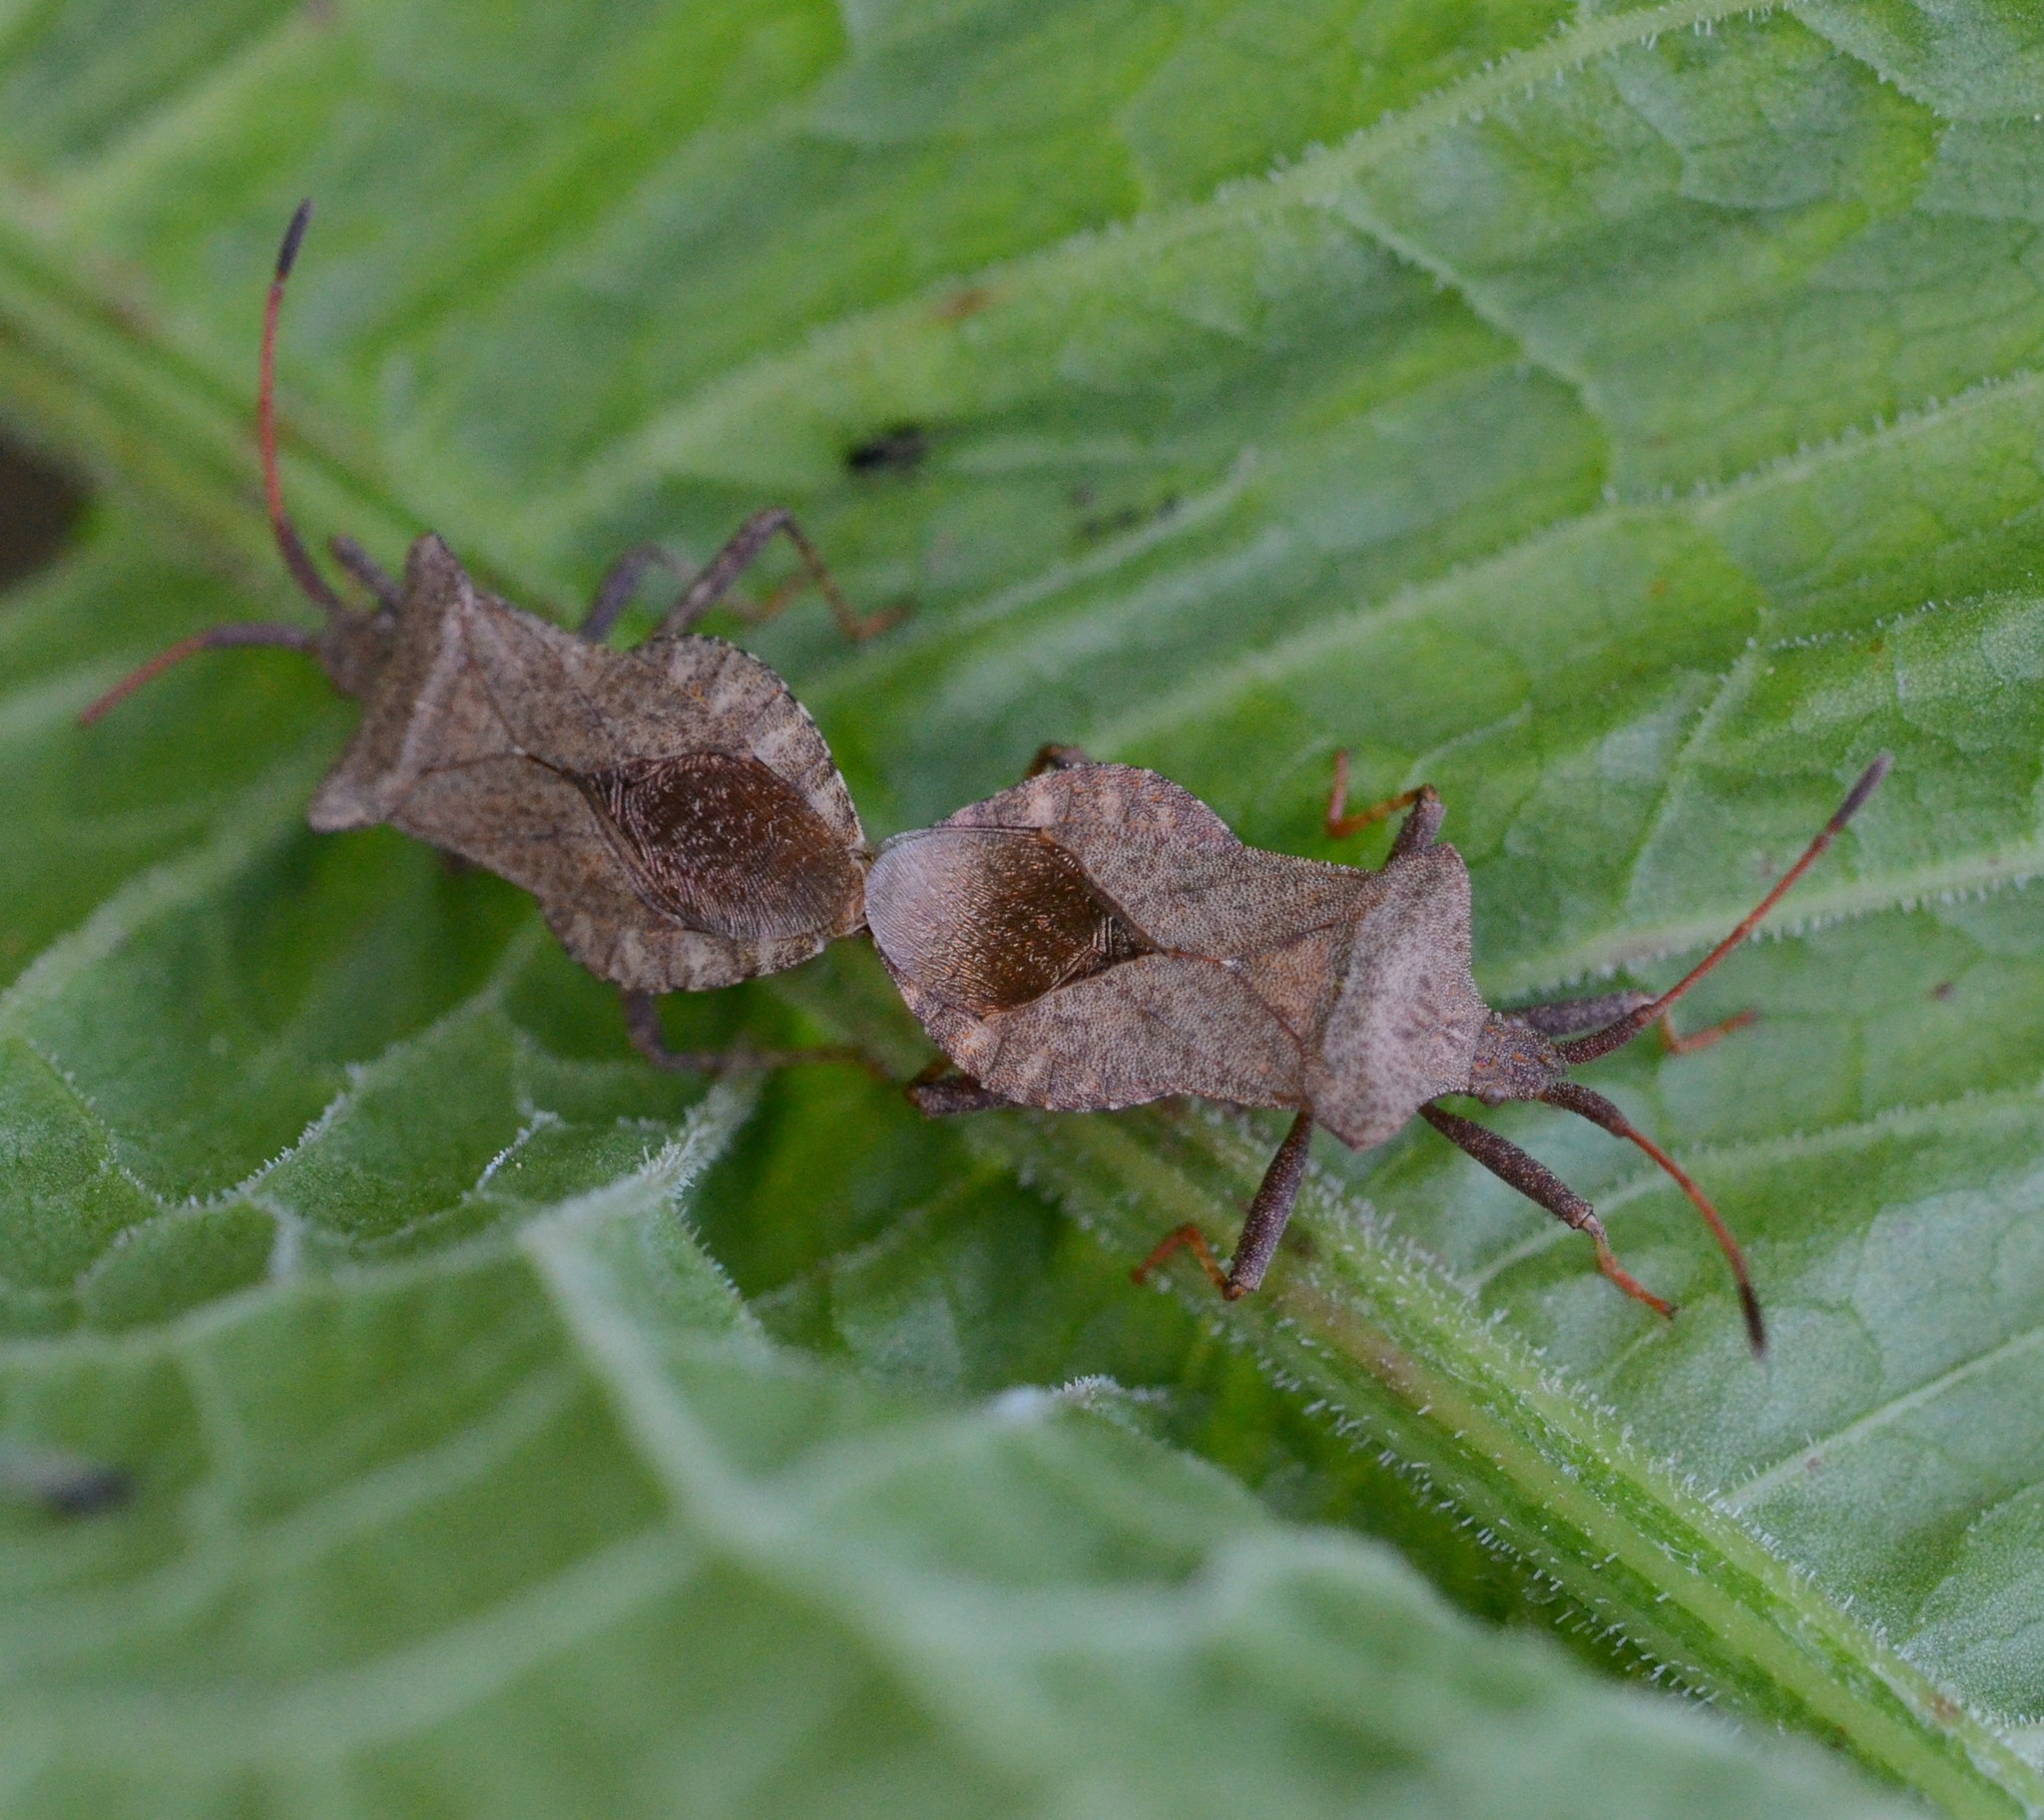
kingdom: Animalia
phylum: Arthropoda
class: Insecta
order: Hemiptera
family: Coreidae
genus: Coreus
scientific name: Coreus marginatus
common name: Dock bug
